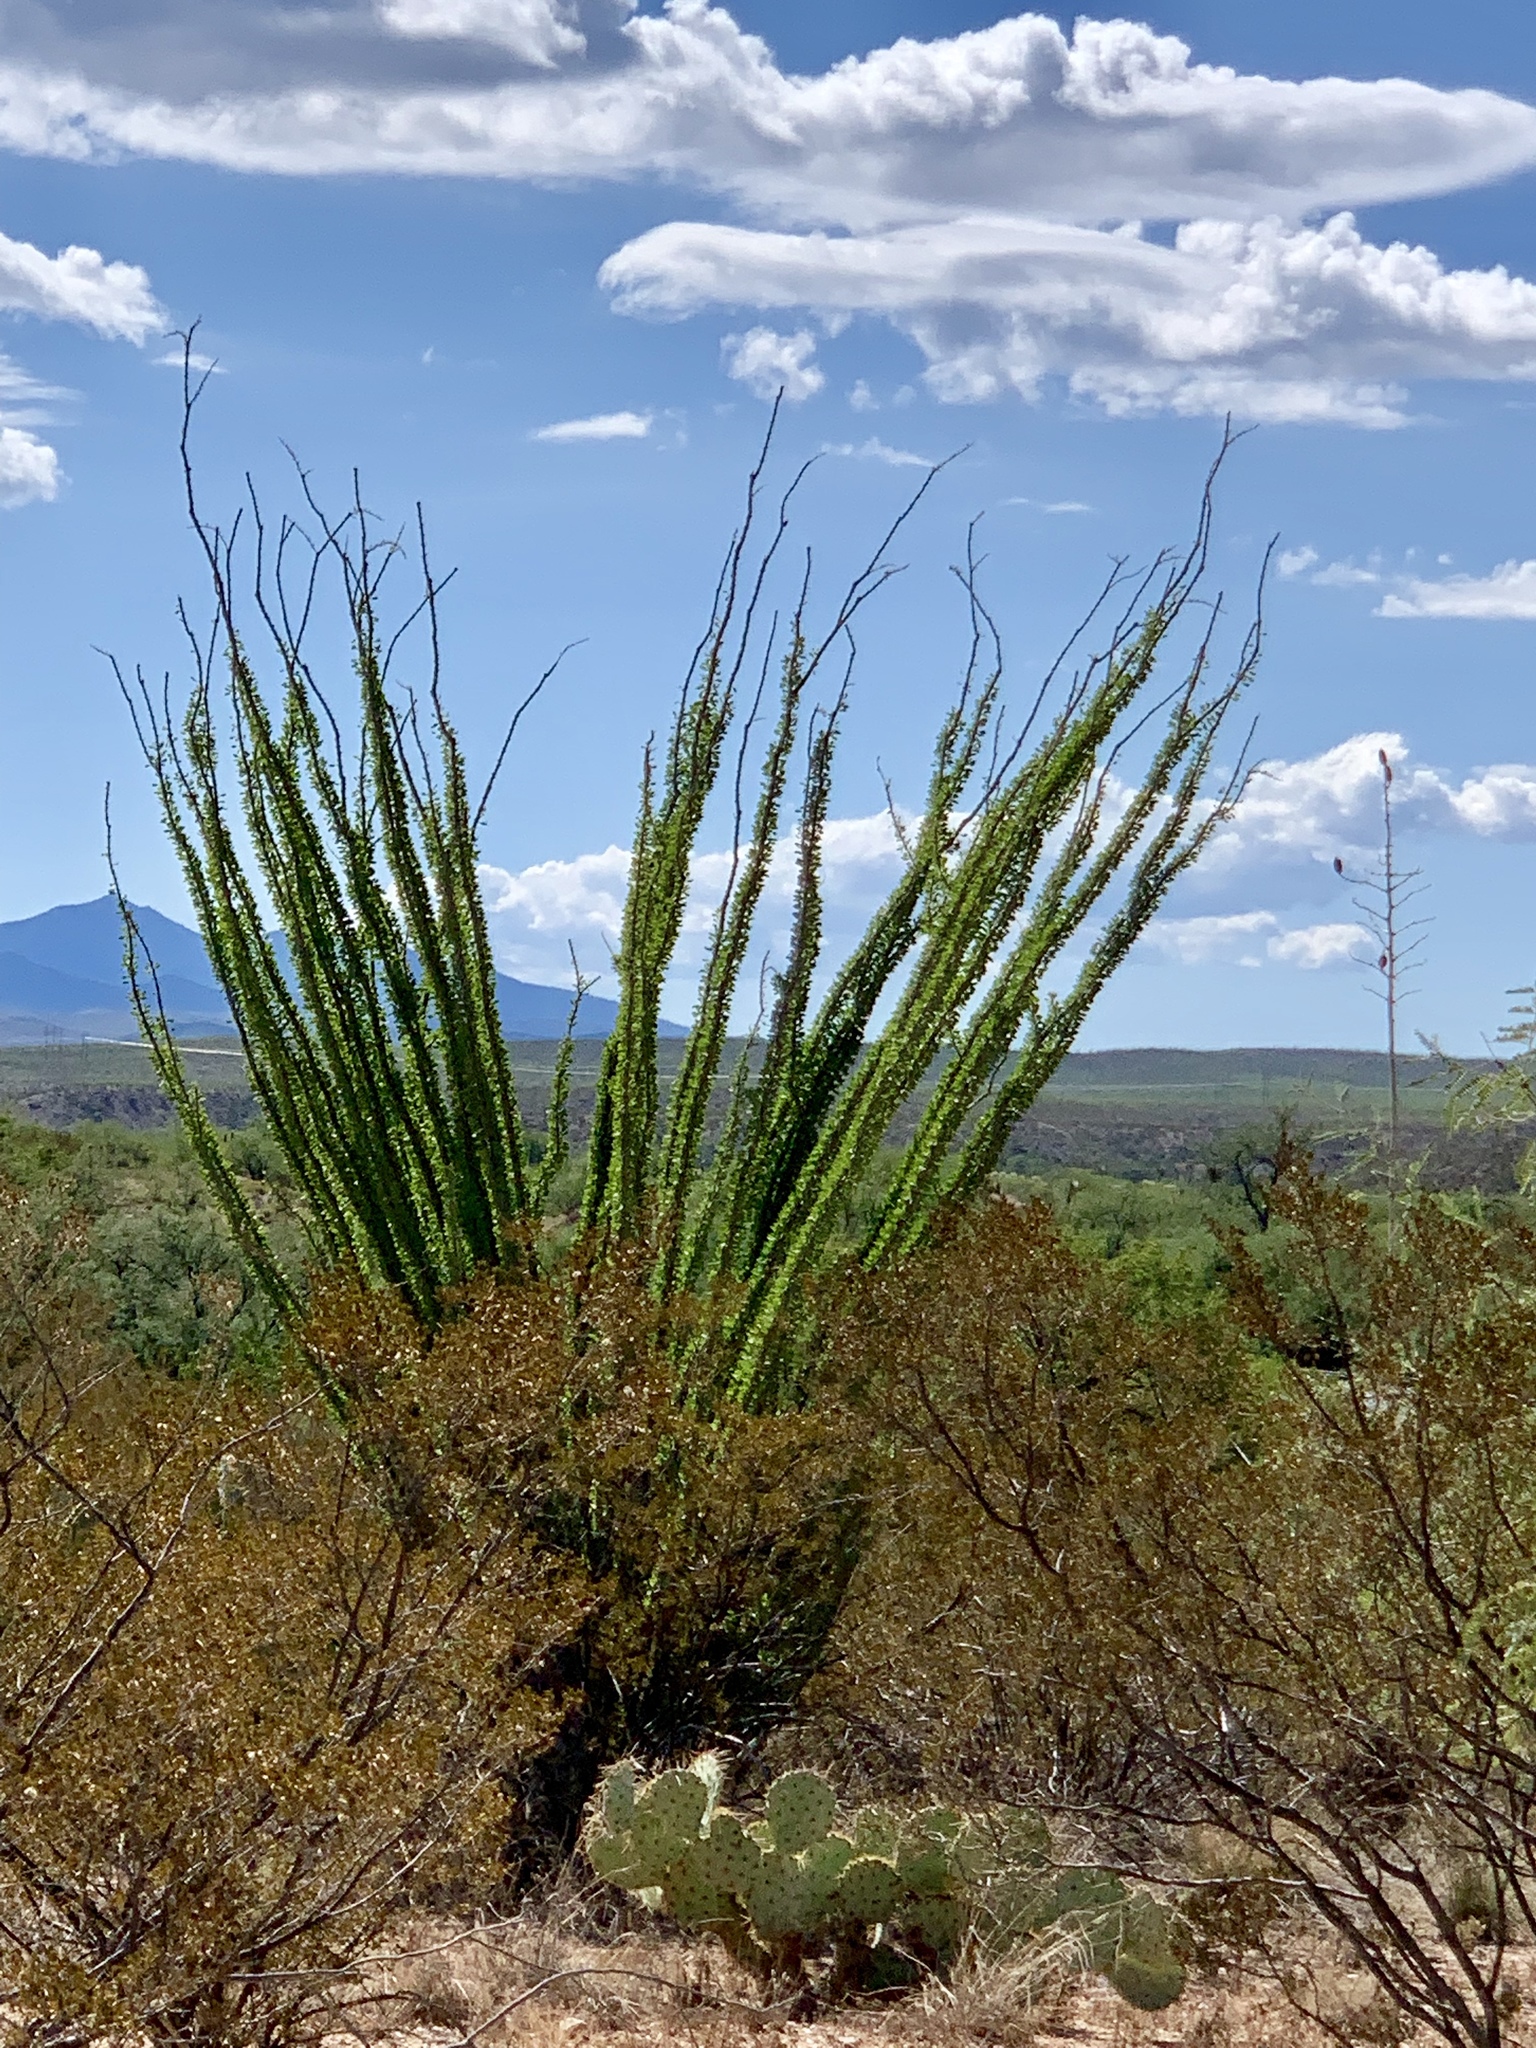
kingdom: Plantae
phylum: Tracheophyta
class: Magnoliopsida
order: Ericales
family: Fouquieriaceae
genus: Fouquieria
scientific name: Fouquieria splendens
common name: Vine-cactus
